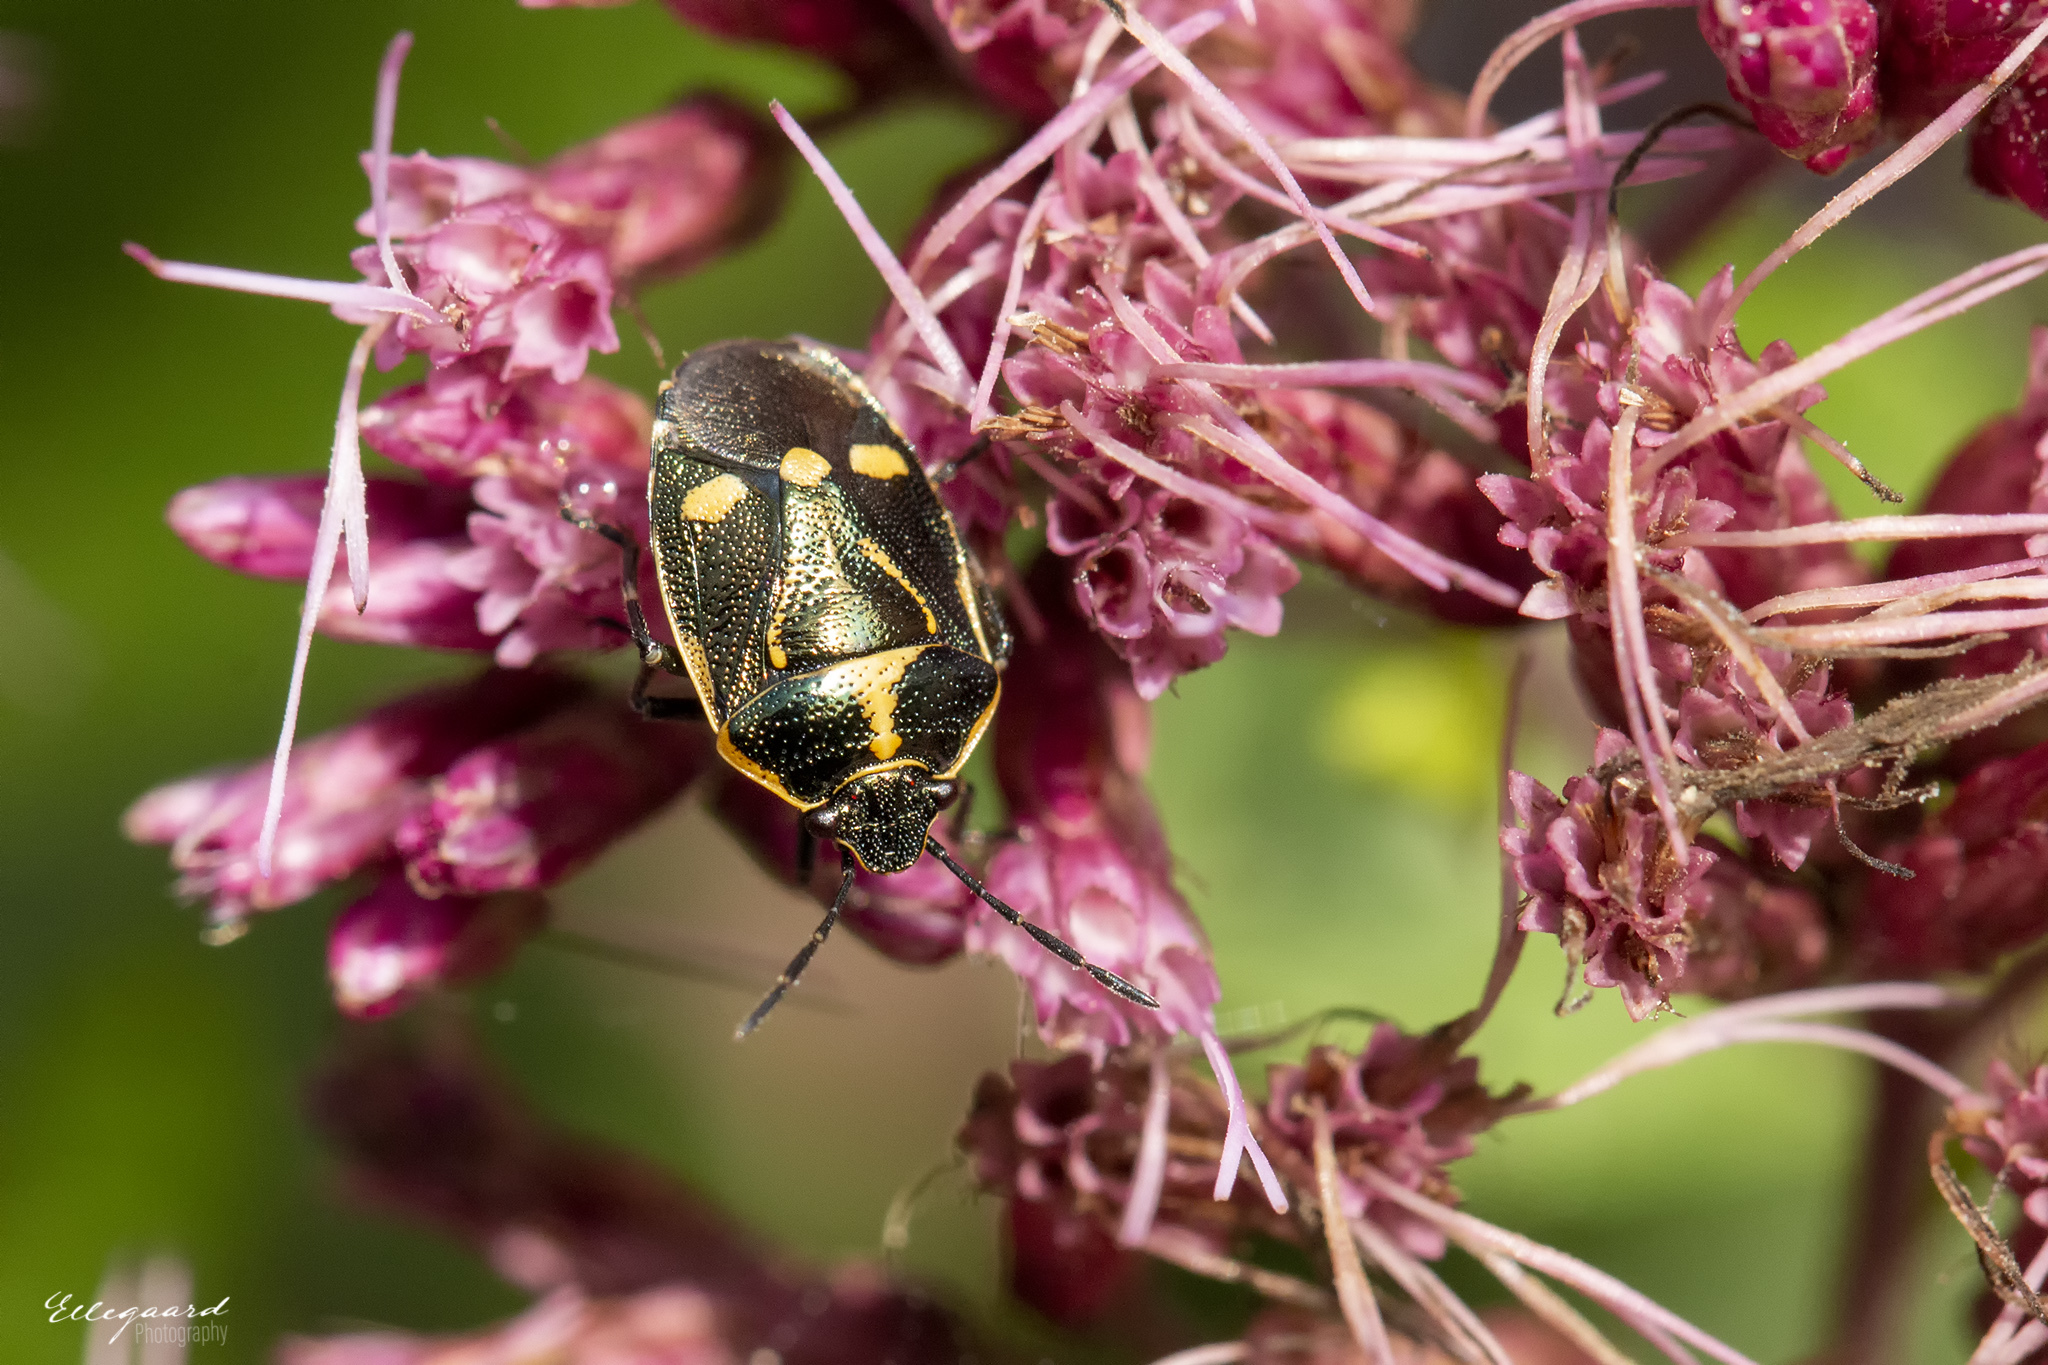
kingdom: Animalia
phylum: Arthropoda
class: Insecta
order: Hemiptera
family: Pentatomidae
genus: Eurydema
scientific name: Eurydema oleracea
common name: Cabbage bug
